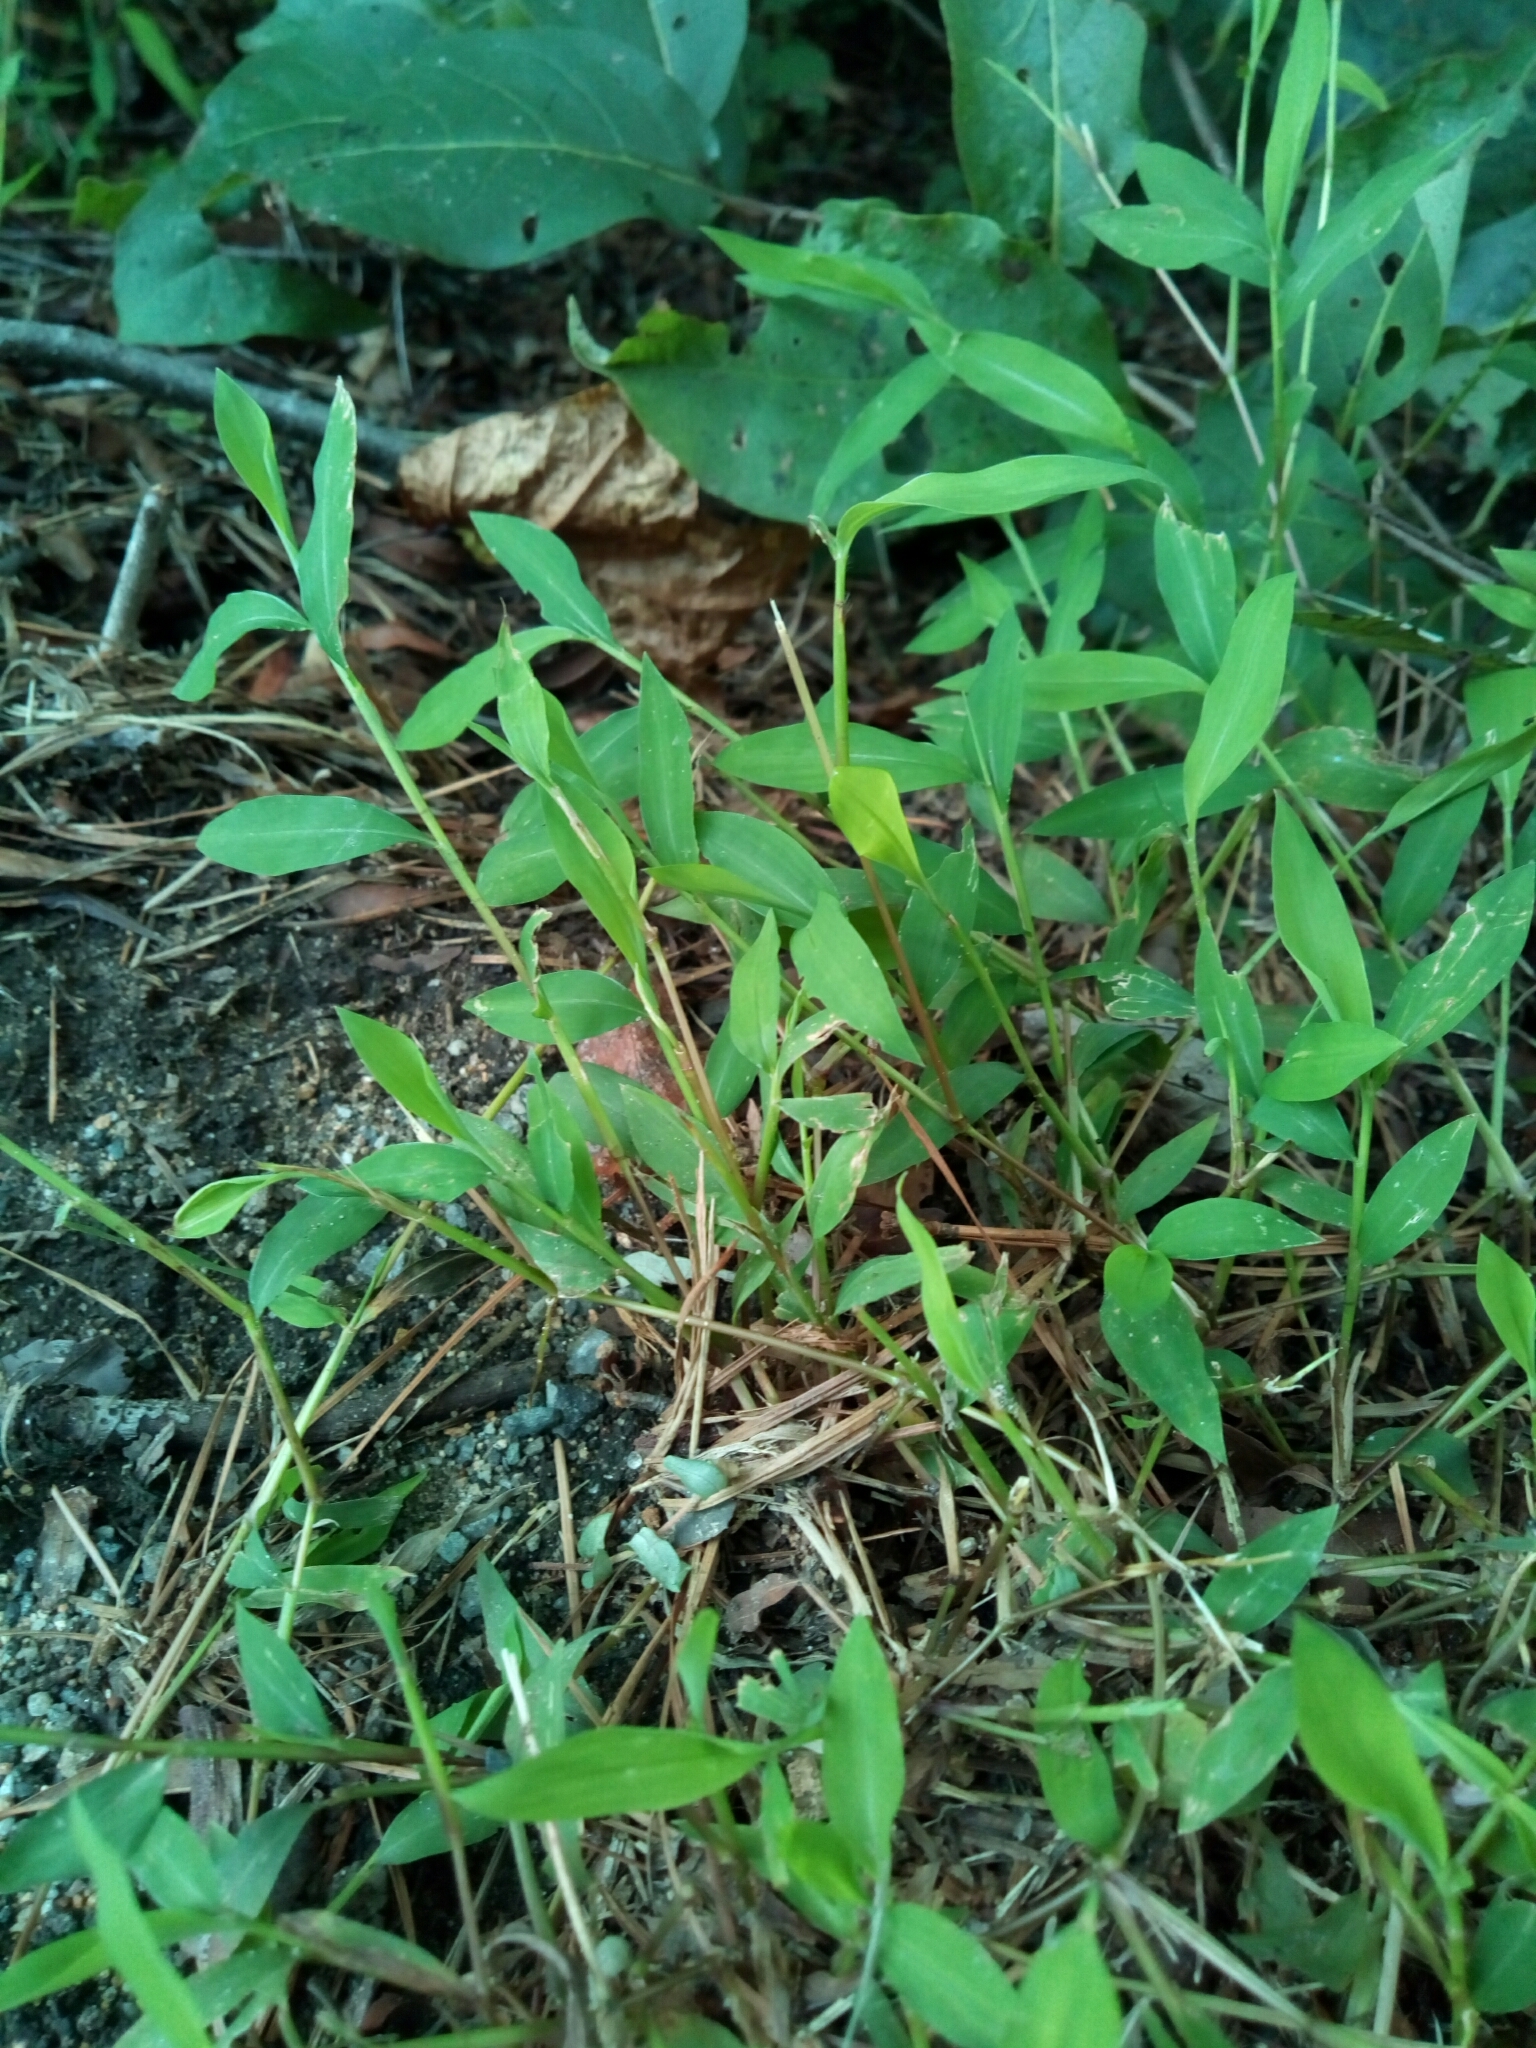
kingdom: Plantae
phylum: Tracheophyta
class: Liliopsida
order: Poales
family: Poaceae
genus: Microstegium
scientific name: Microstegium vimineum
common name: Japanese stiltgrass
